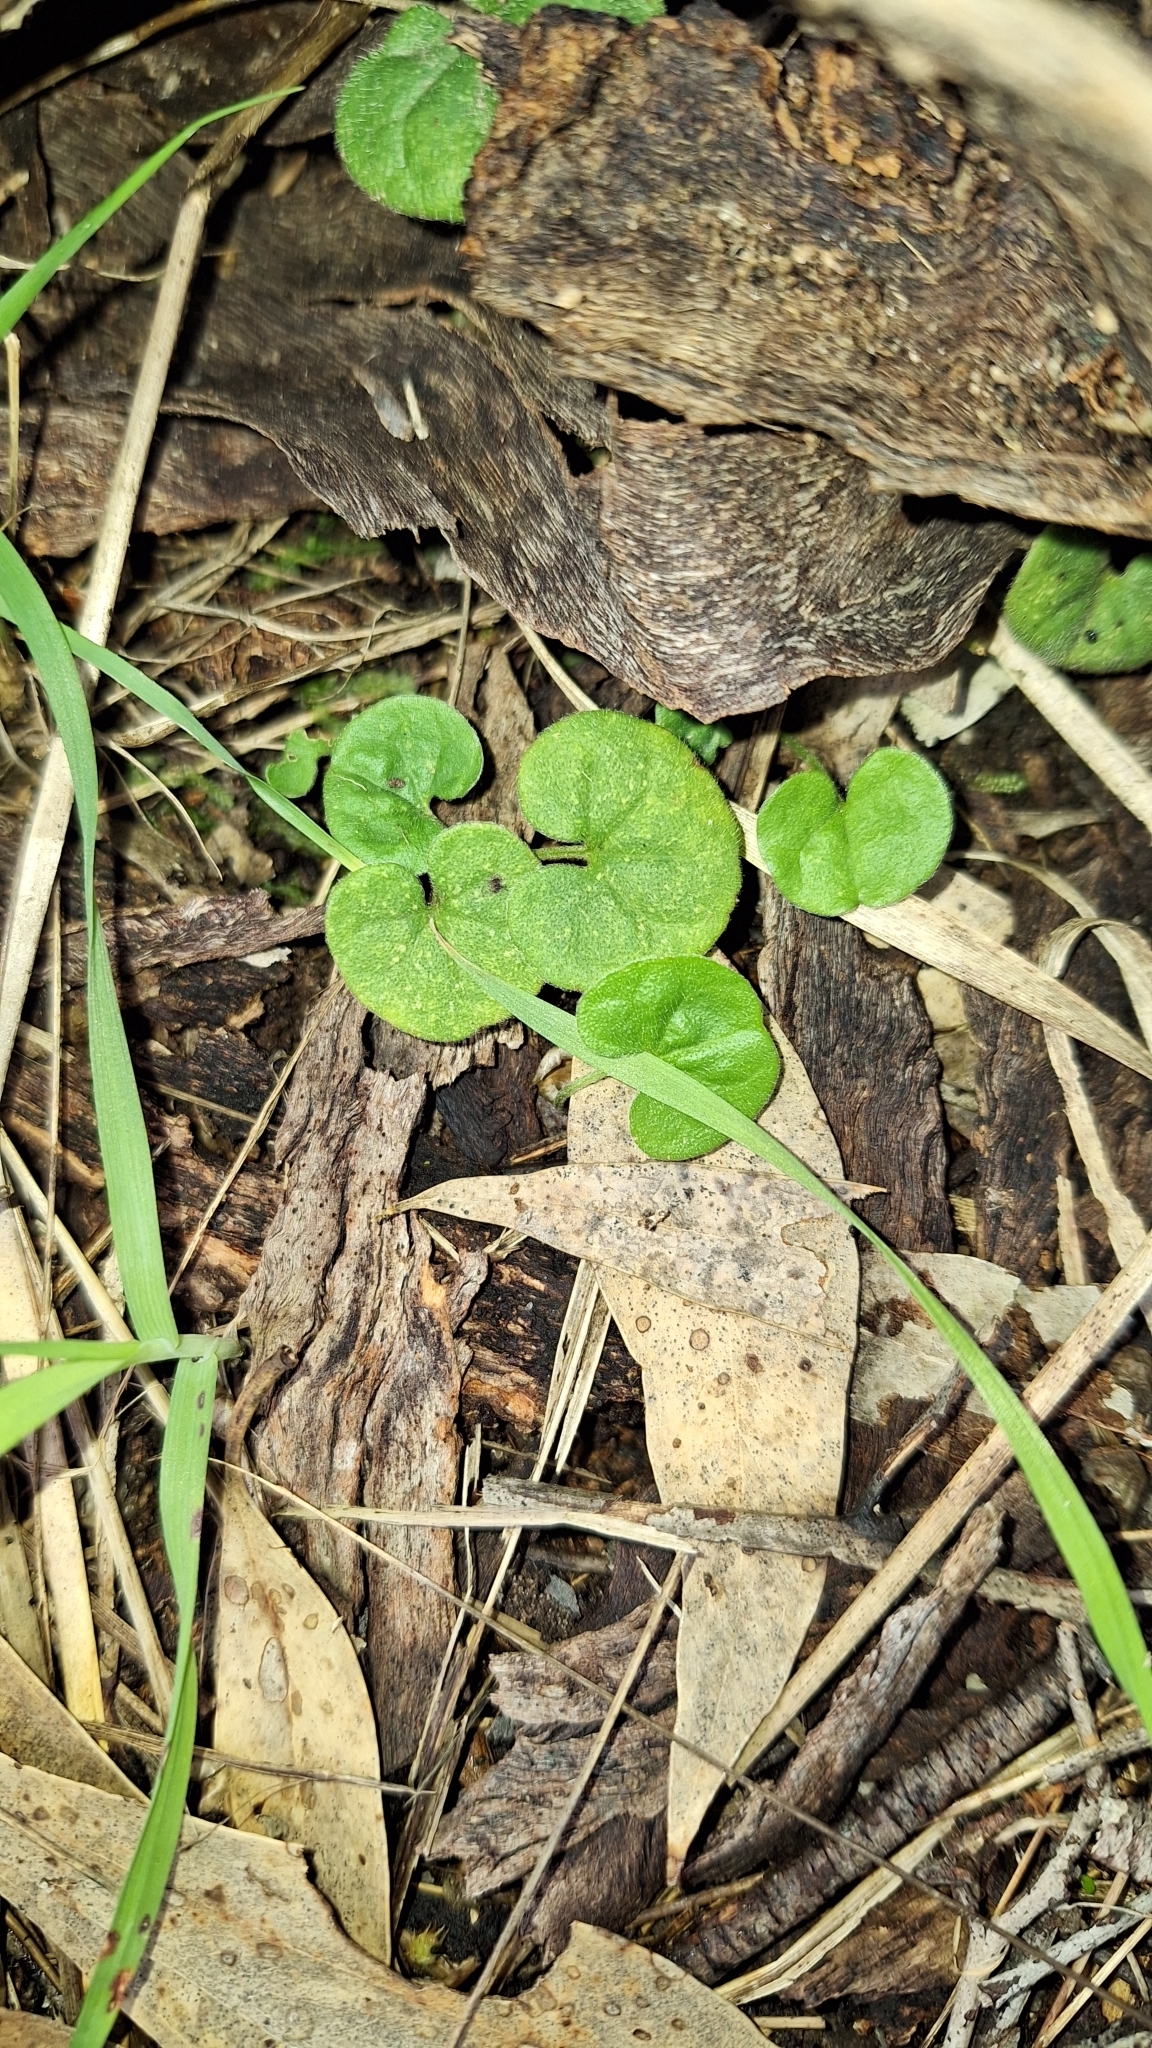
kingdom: Plantae
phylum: Tracheophyta
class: Magnoliopsida
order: Solanales
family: Convolvulaceae
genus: Dichondra
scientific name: Dichondra repens
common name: Kidneyweed
